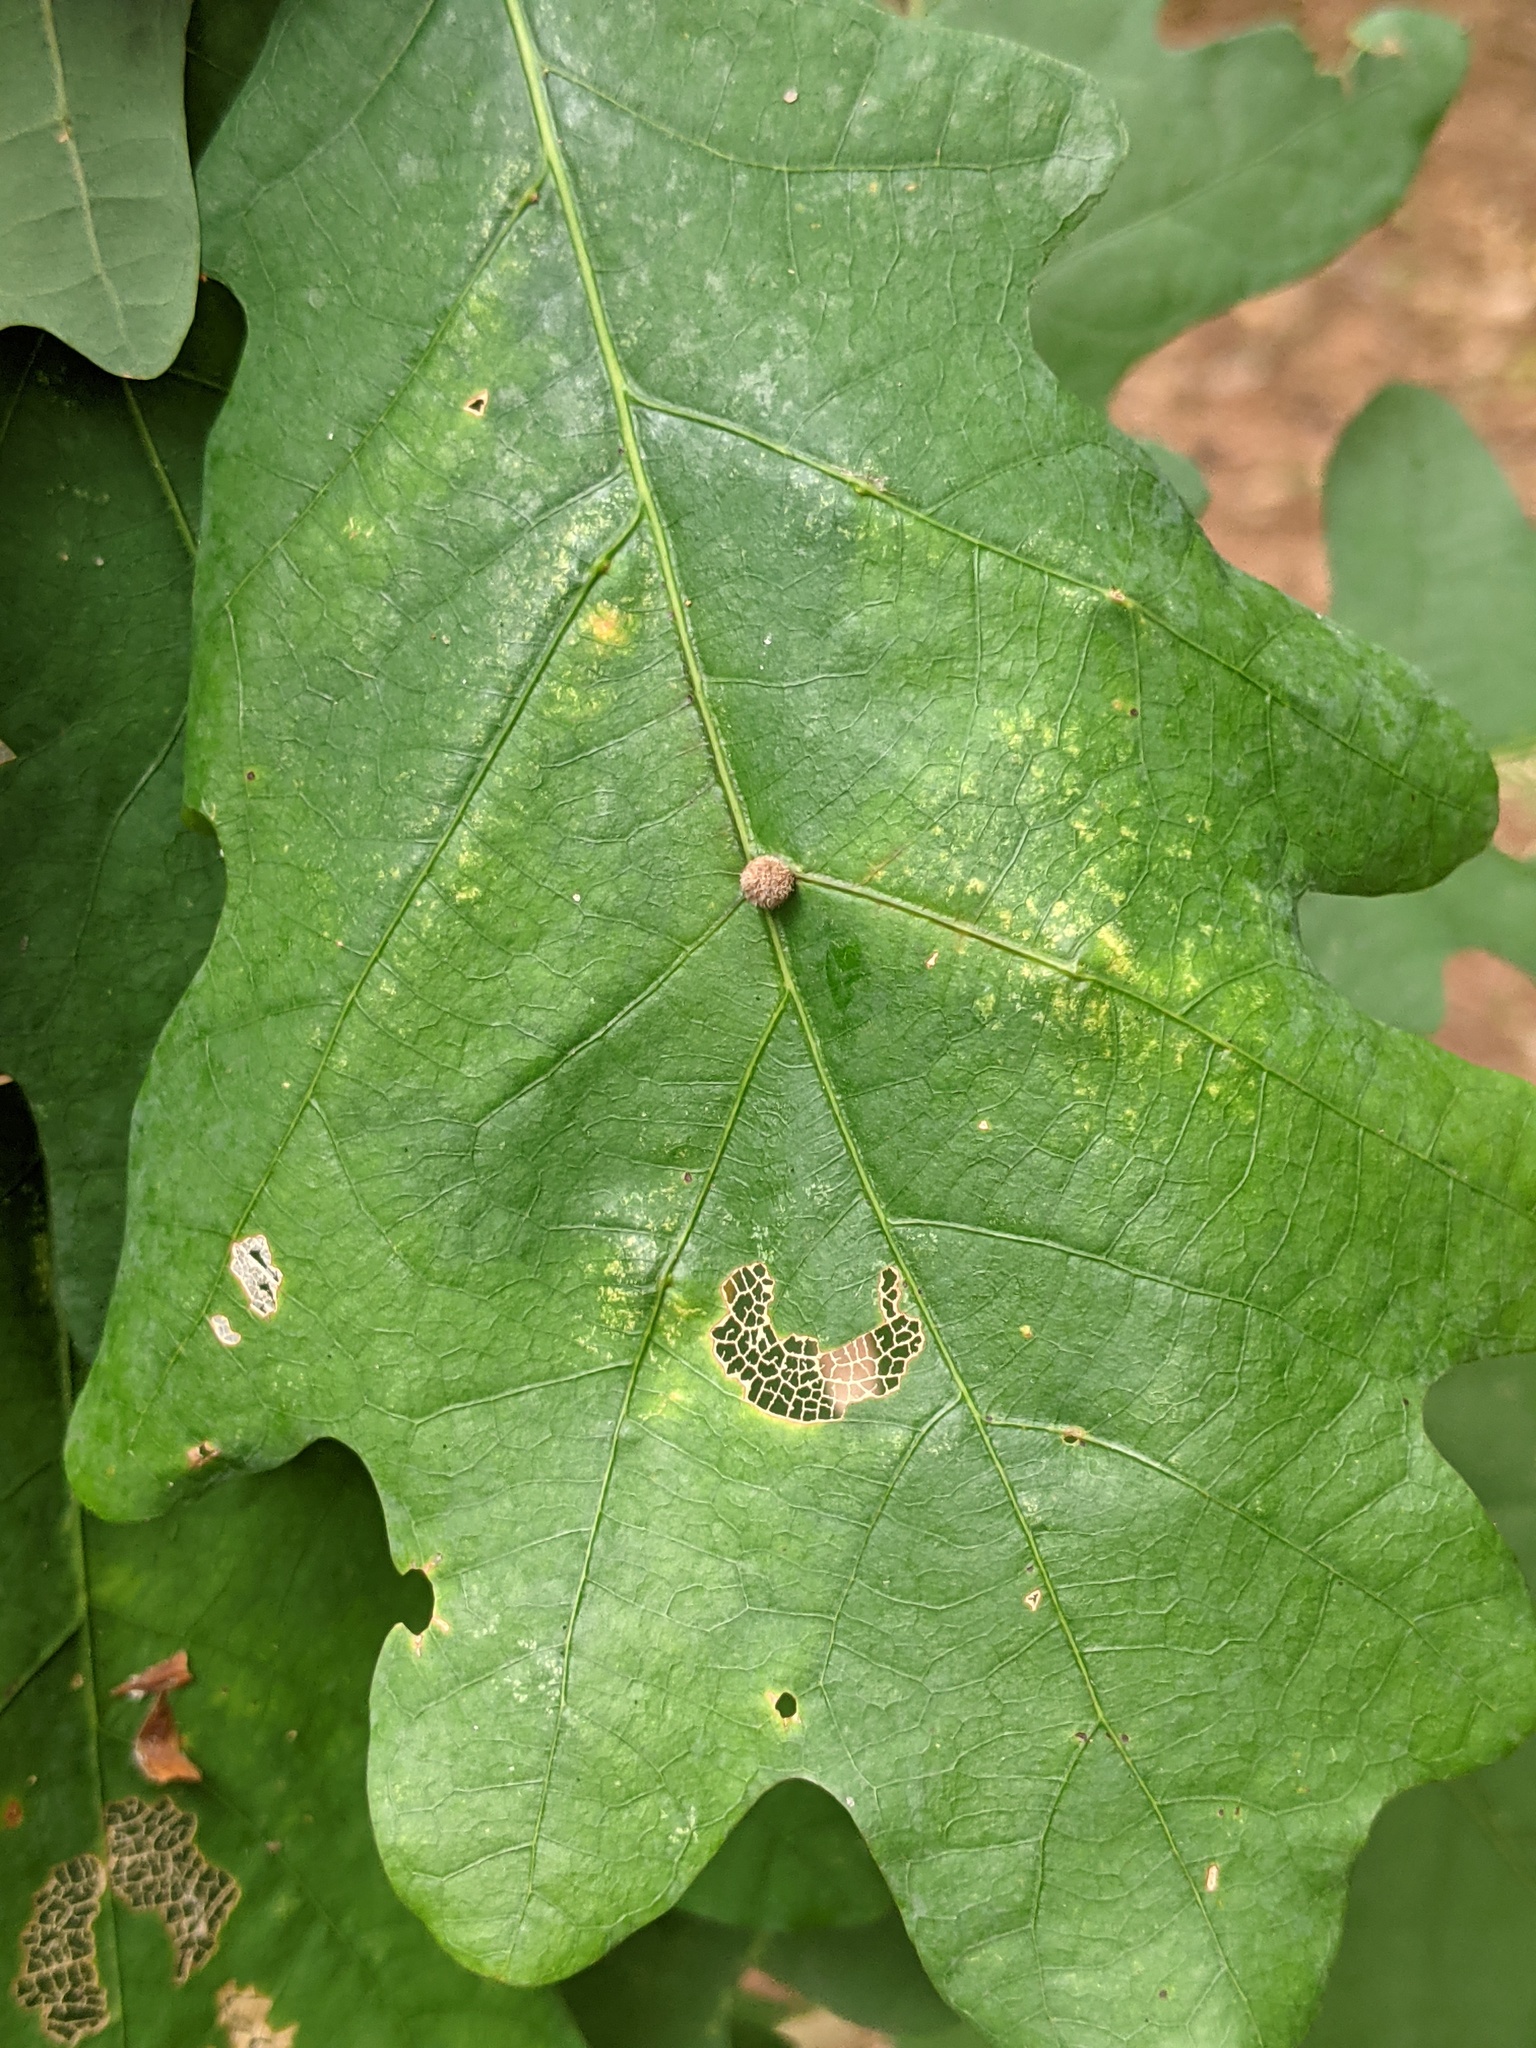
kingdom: Animalia
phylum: Arthropoda
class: Insecta
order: Hymenoptera
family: Cynipidae
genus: Philonix
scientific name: Philonix fulvicollis
